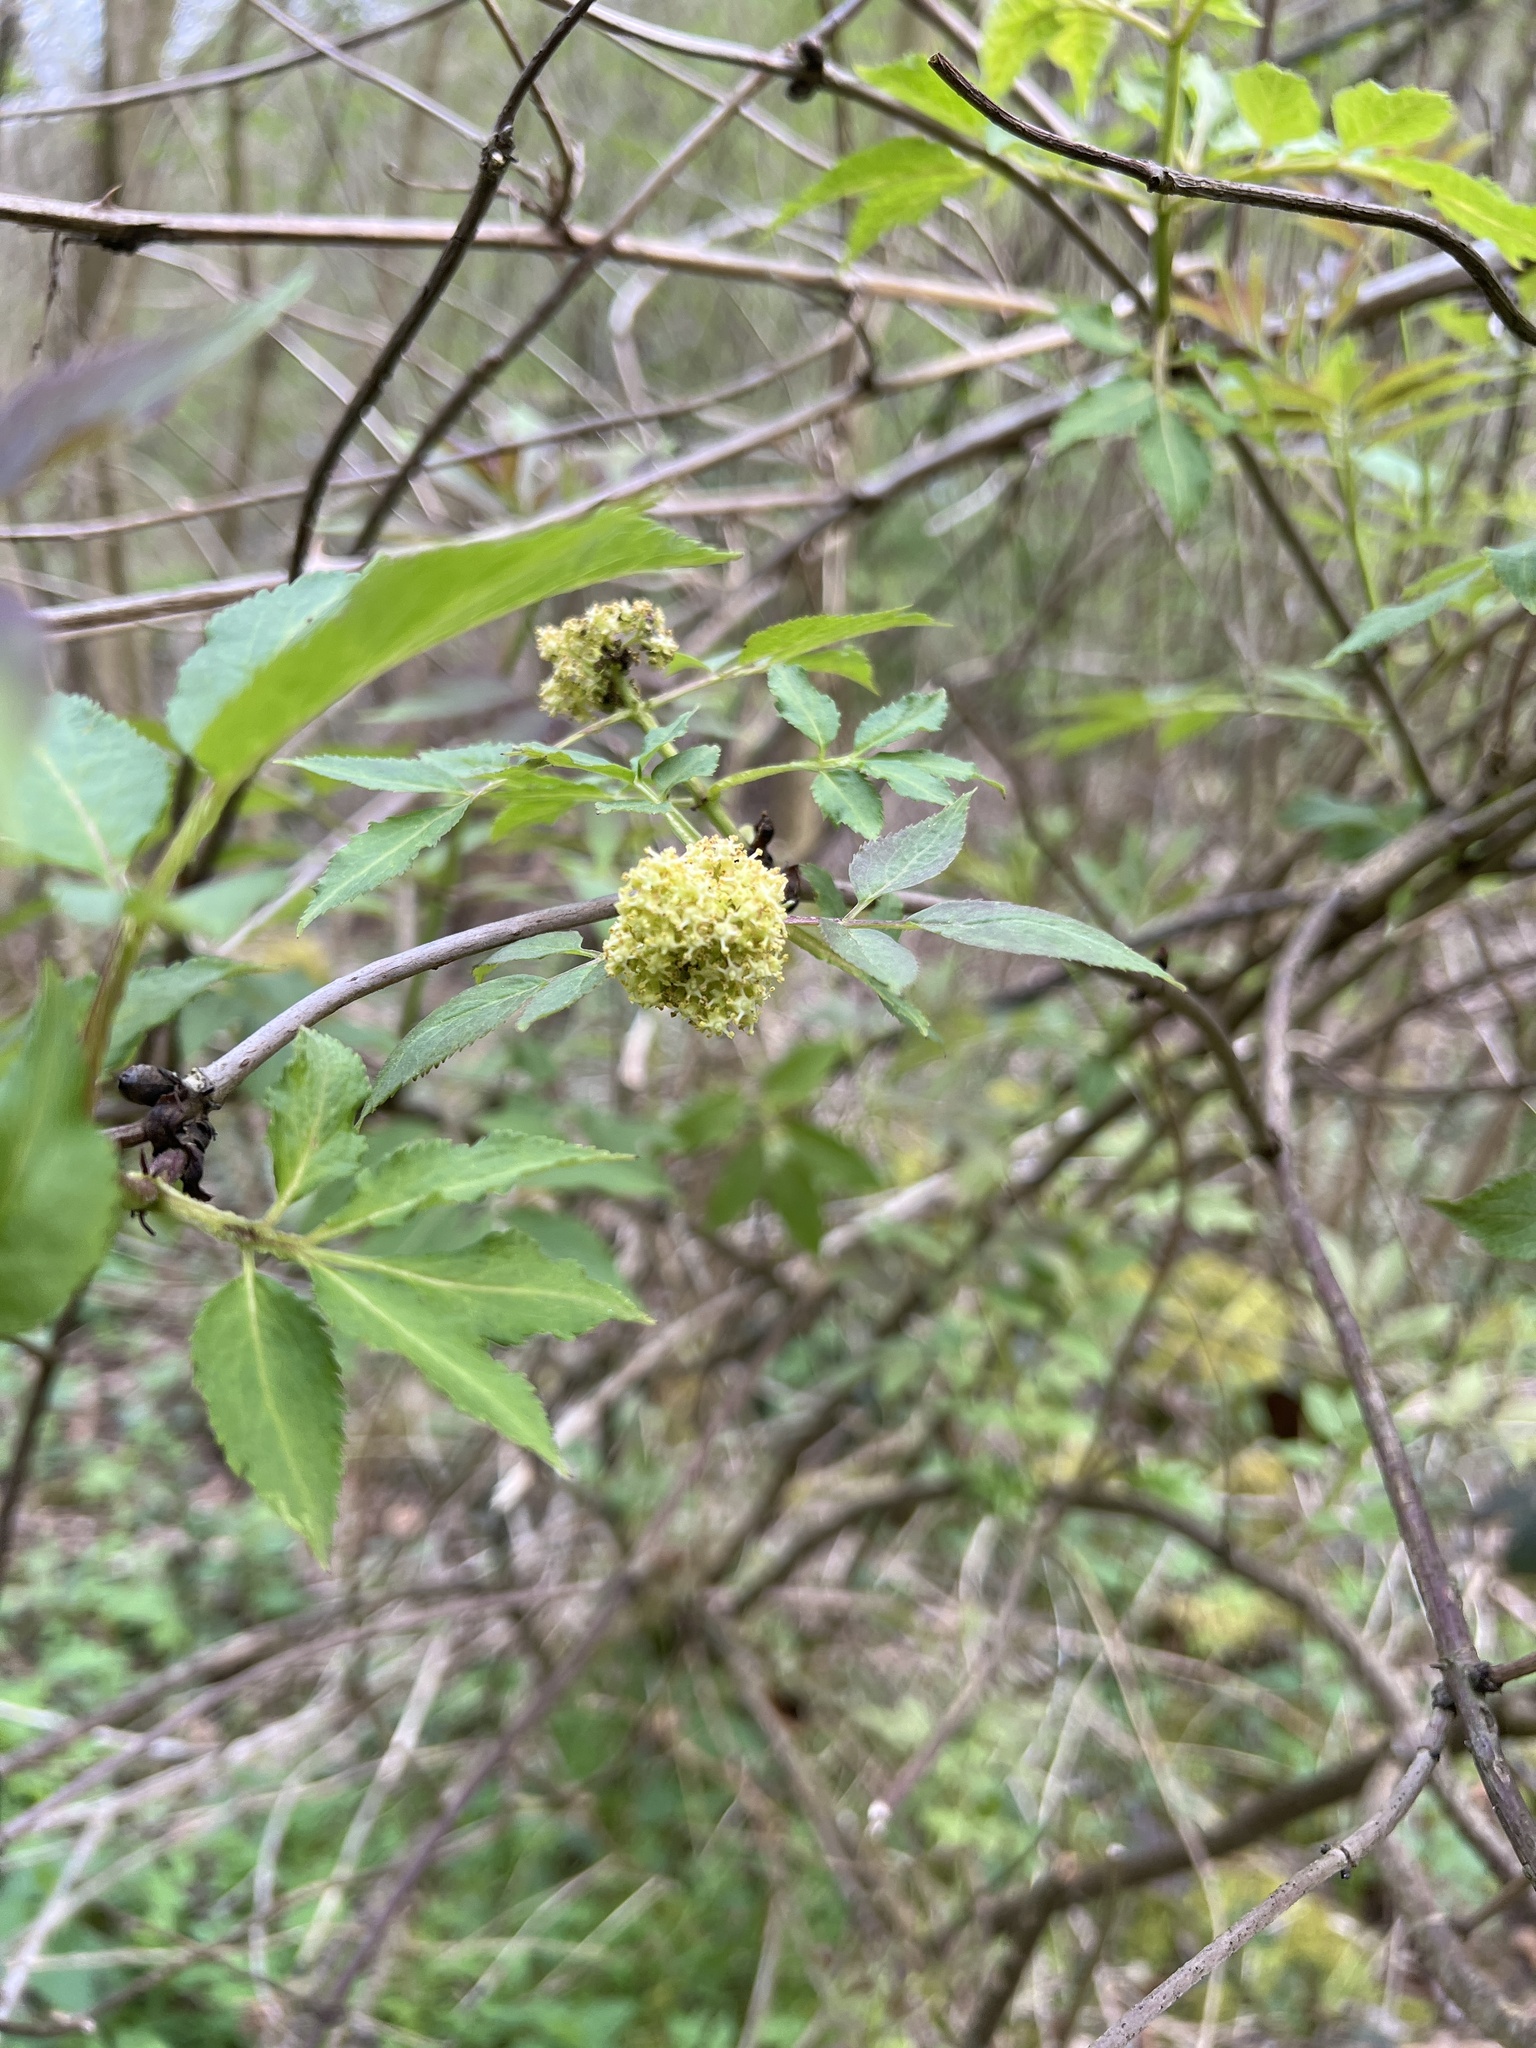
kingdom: Plantae
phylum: Tracheophyta
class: Magnoliopsida
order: Dipsacales
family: Viburnaceae
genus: Sambucus
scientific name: Sambucus racemosa
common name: Red-berried elder
